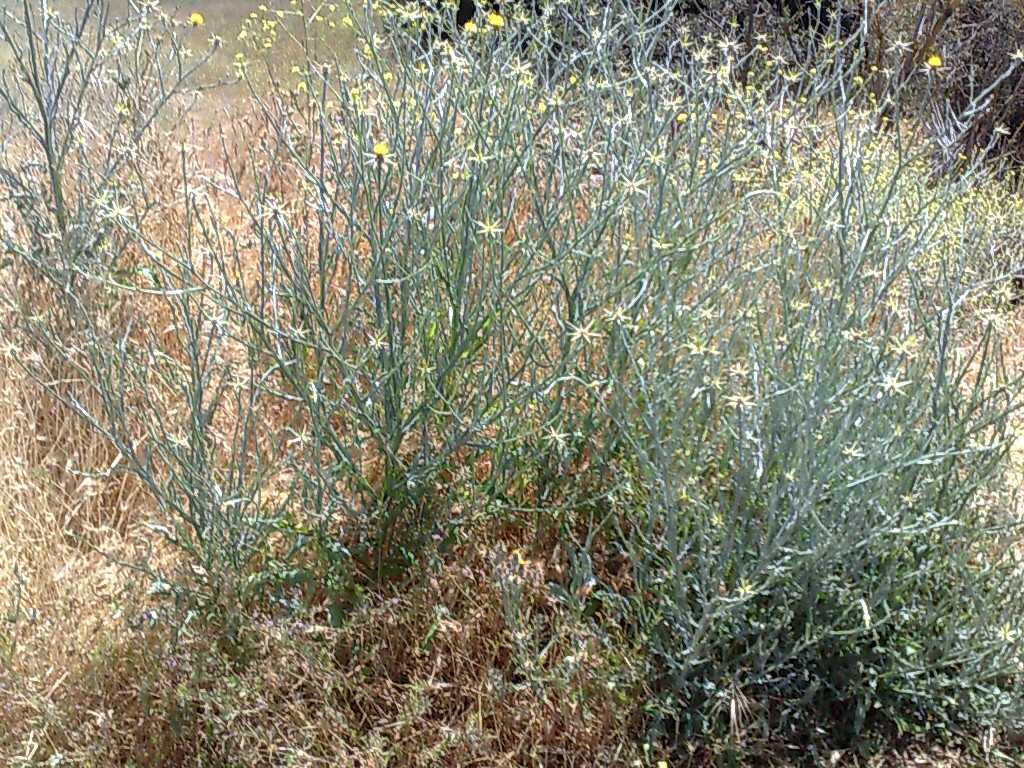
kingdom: Plantae
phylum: Tracheophyta
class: Magnoliopsida
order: Asterales
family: Asteraceae
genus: Centaurea
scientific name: Centaurea solstitialis
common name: Yellow star-thistle
